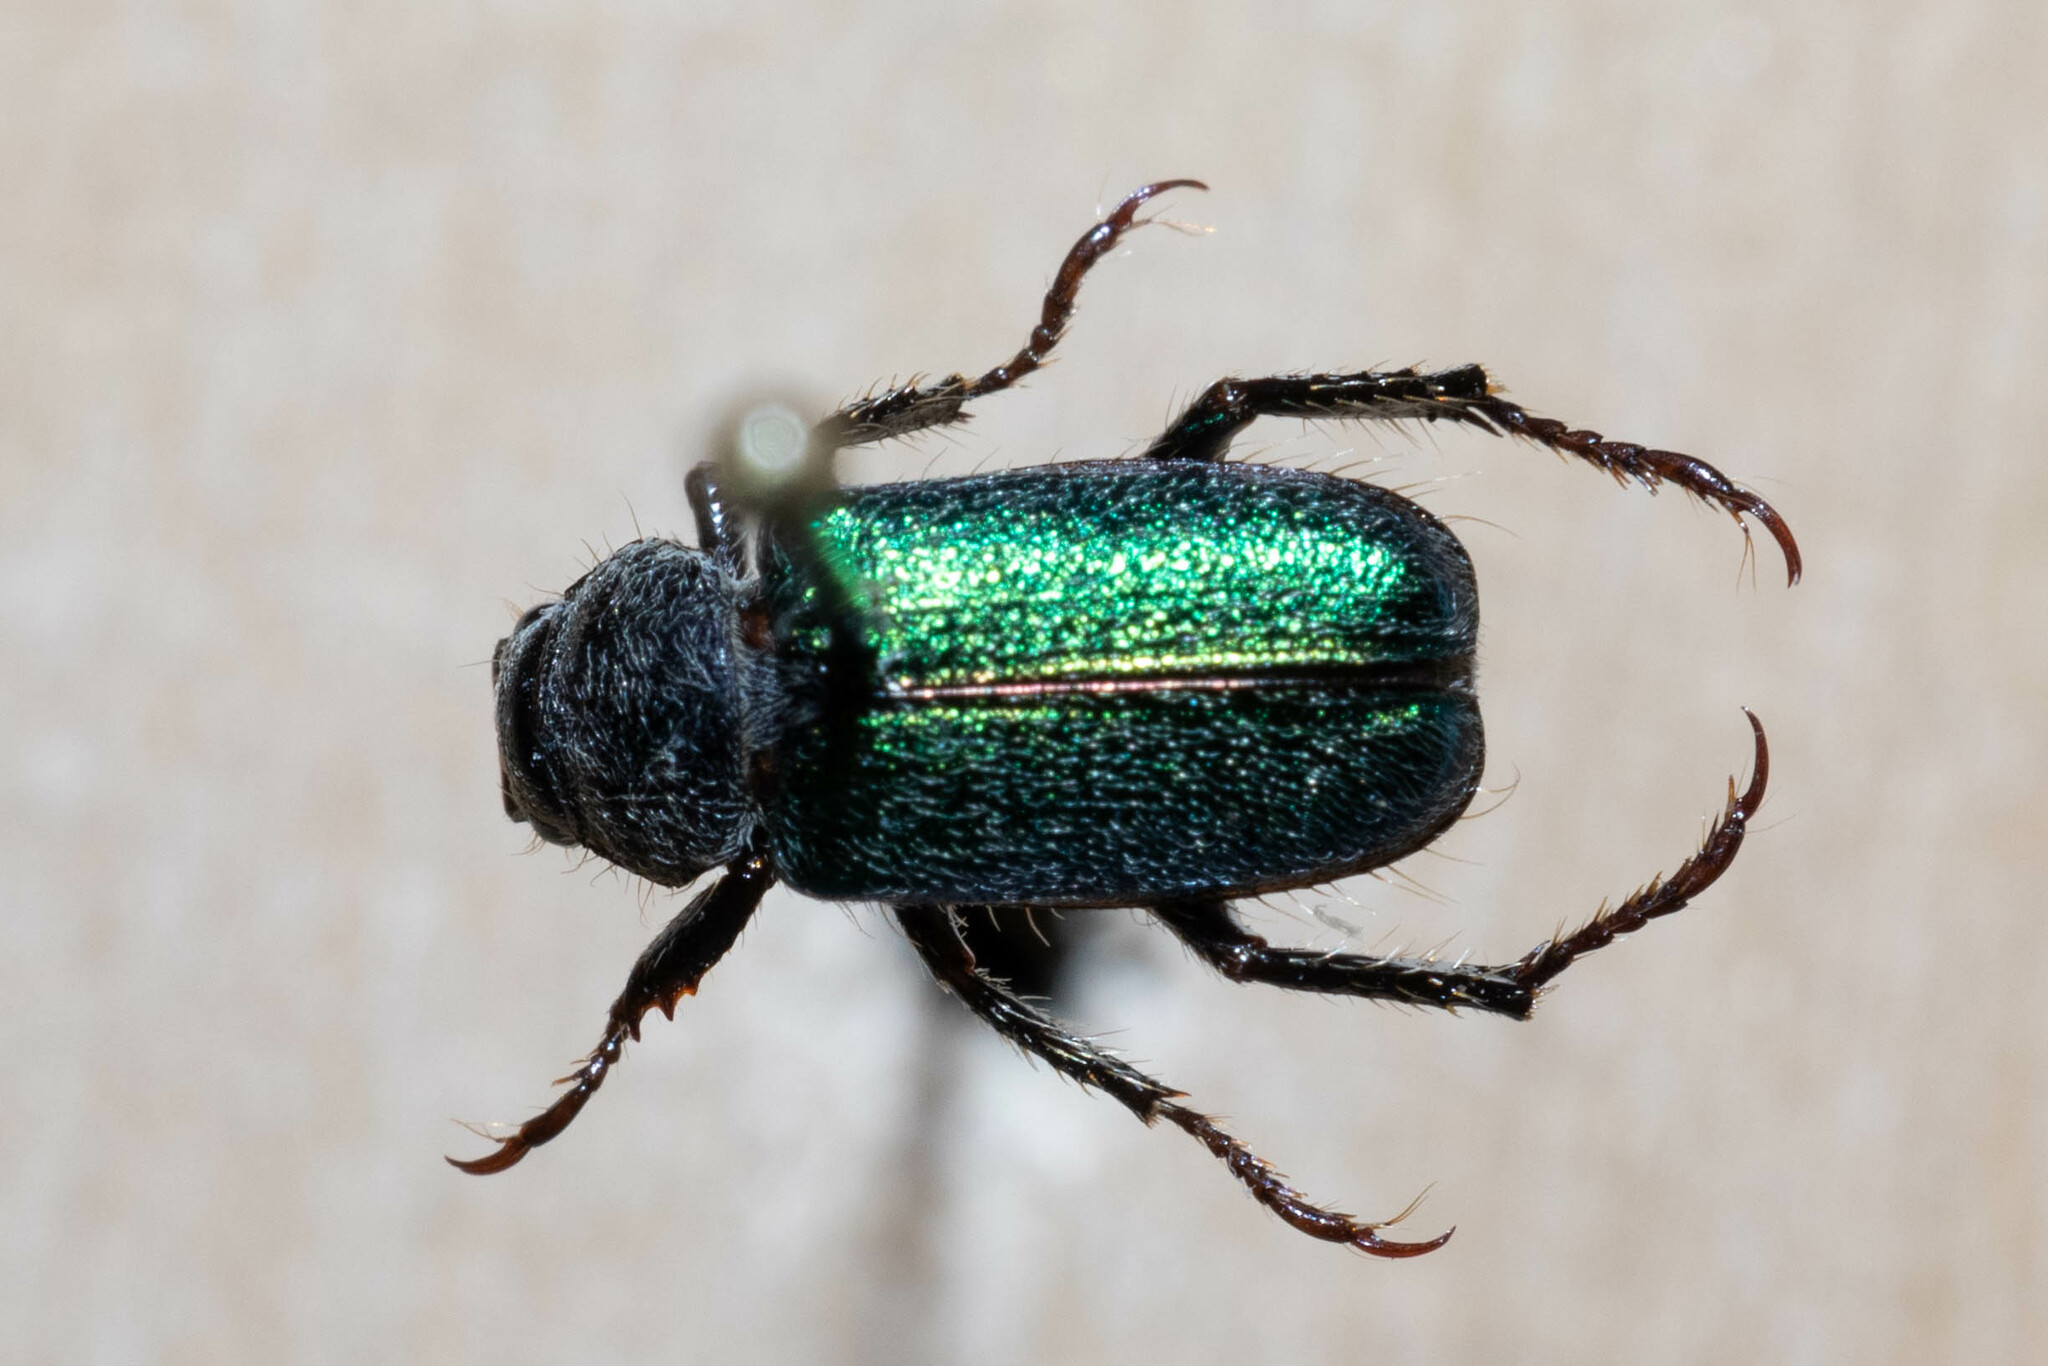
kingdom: Animalia
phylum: Arthropoda
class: Insecta
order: Coleoptera
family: Scarabaeidae
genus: Dichelonyx
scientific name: Dichelonyx backii
